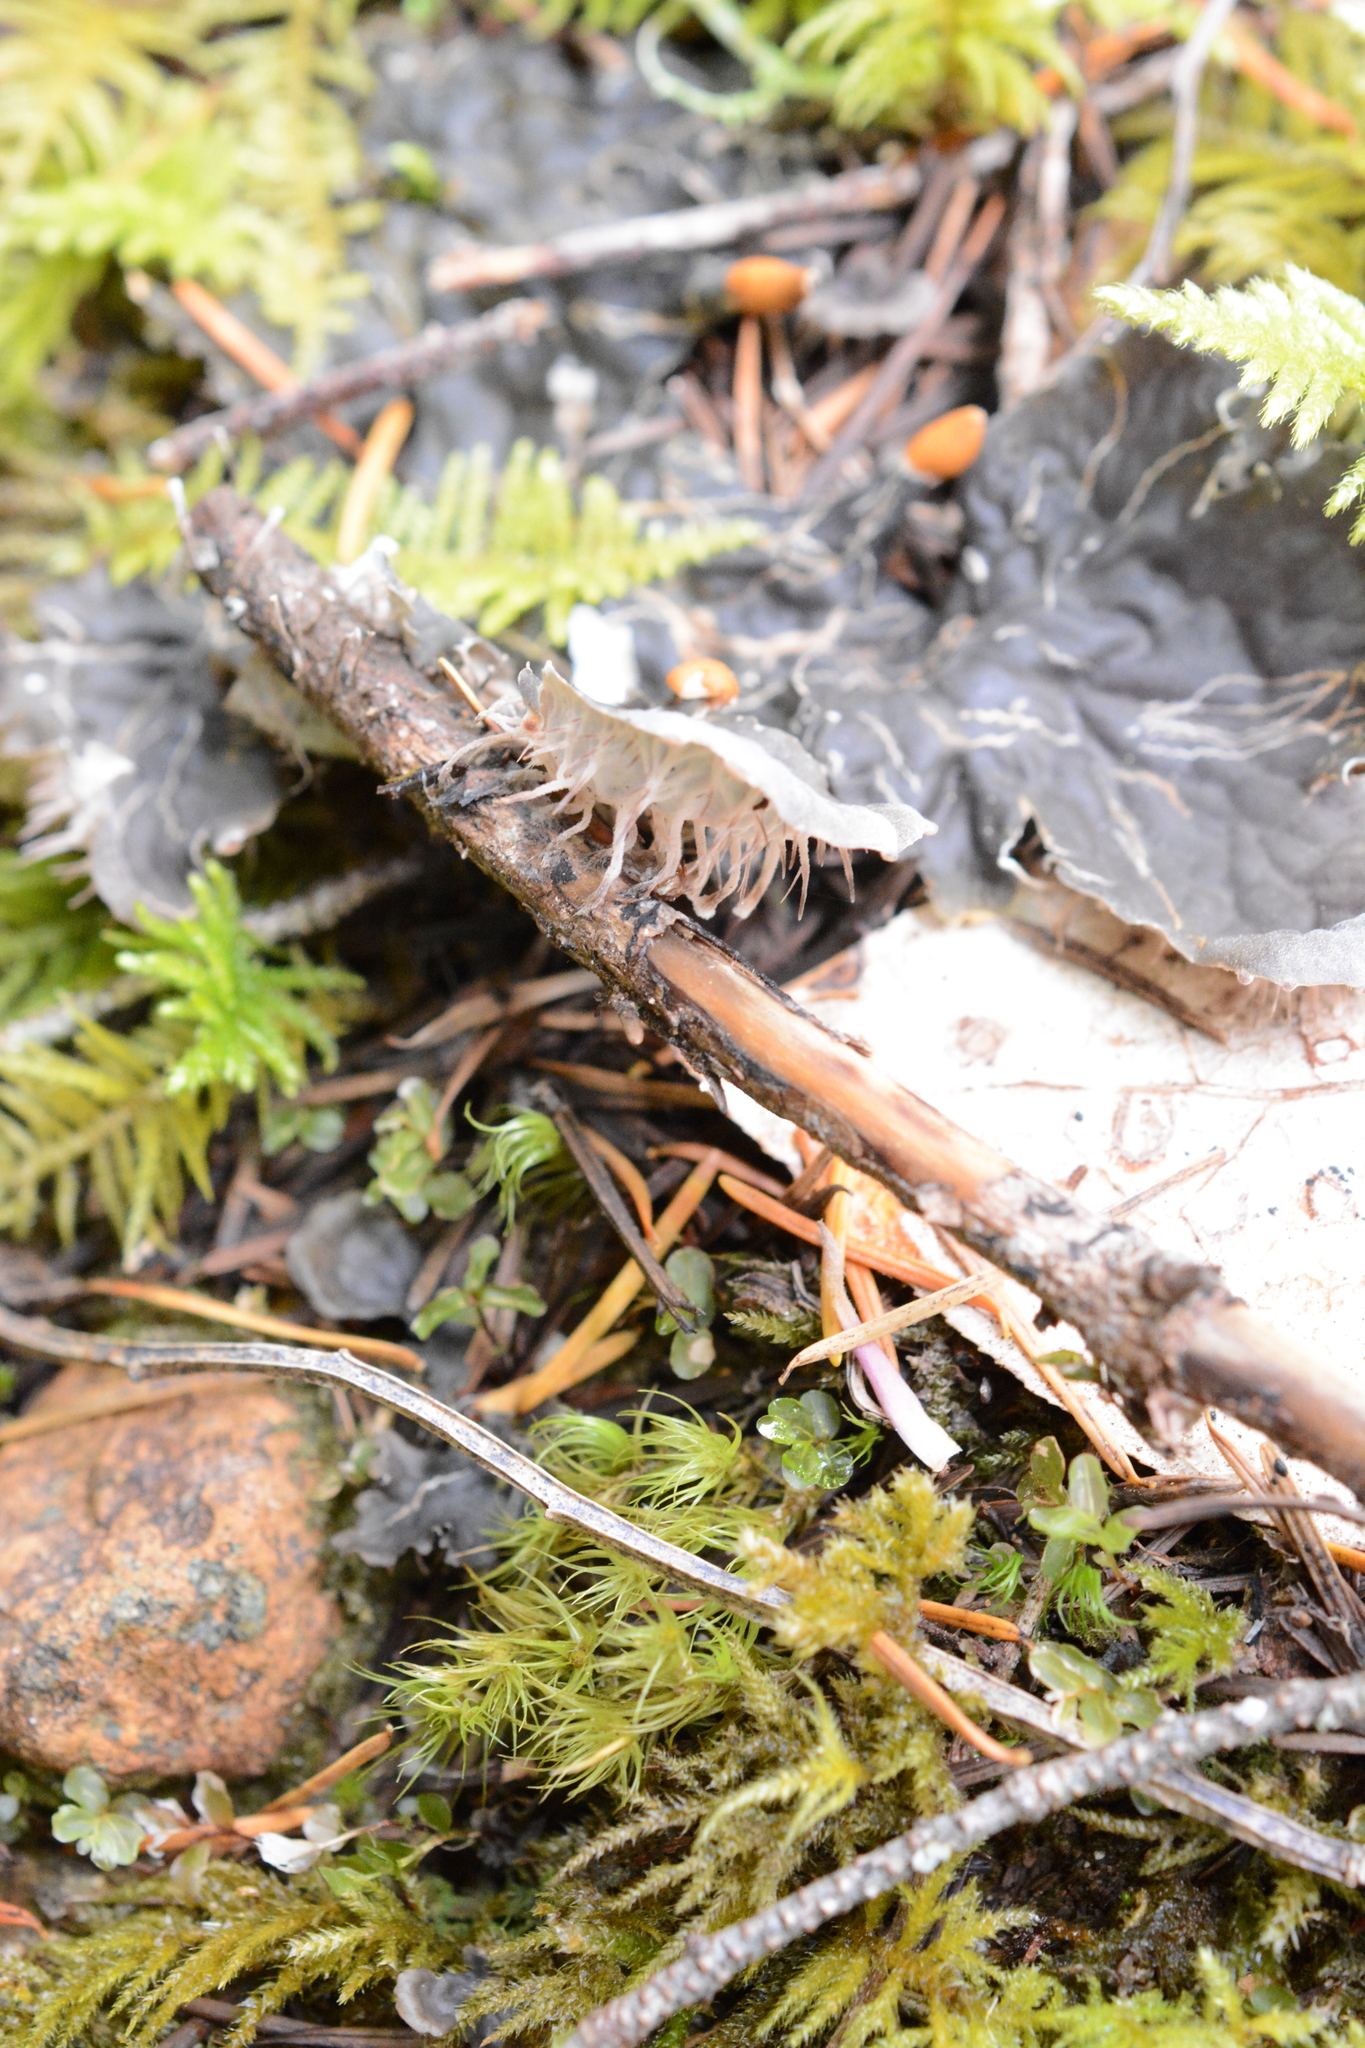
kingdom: Fungi
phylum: Ascomycota
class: Lecanoromycetes
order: Peltigerales
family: Peltigeraceae
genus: Peltigera
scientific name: Peltigera membranacea
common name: Membranous pelt lichen
